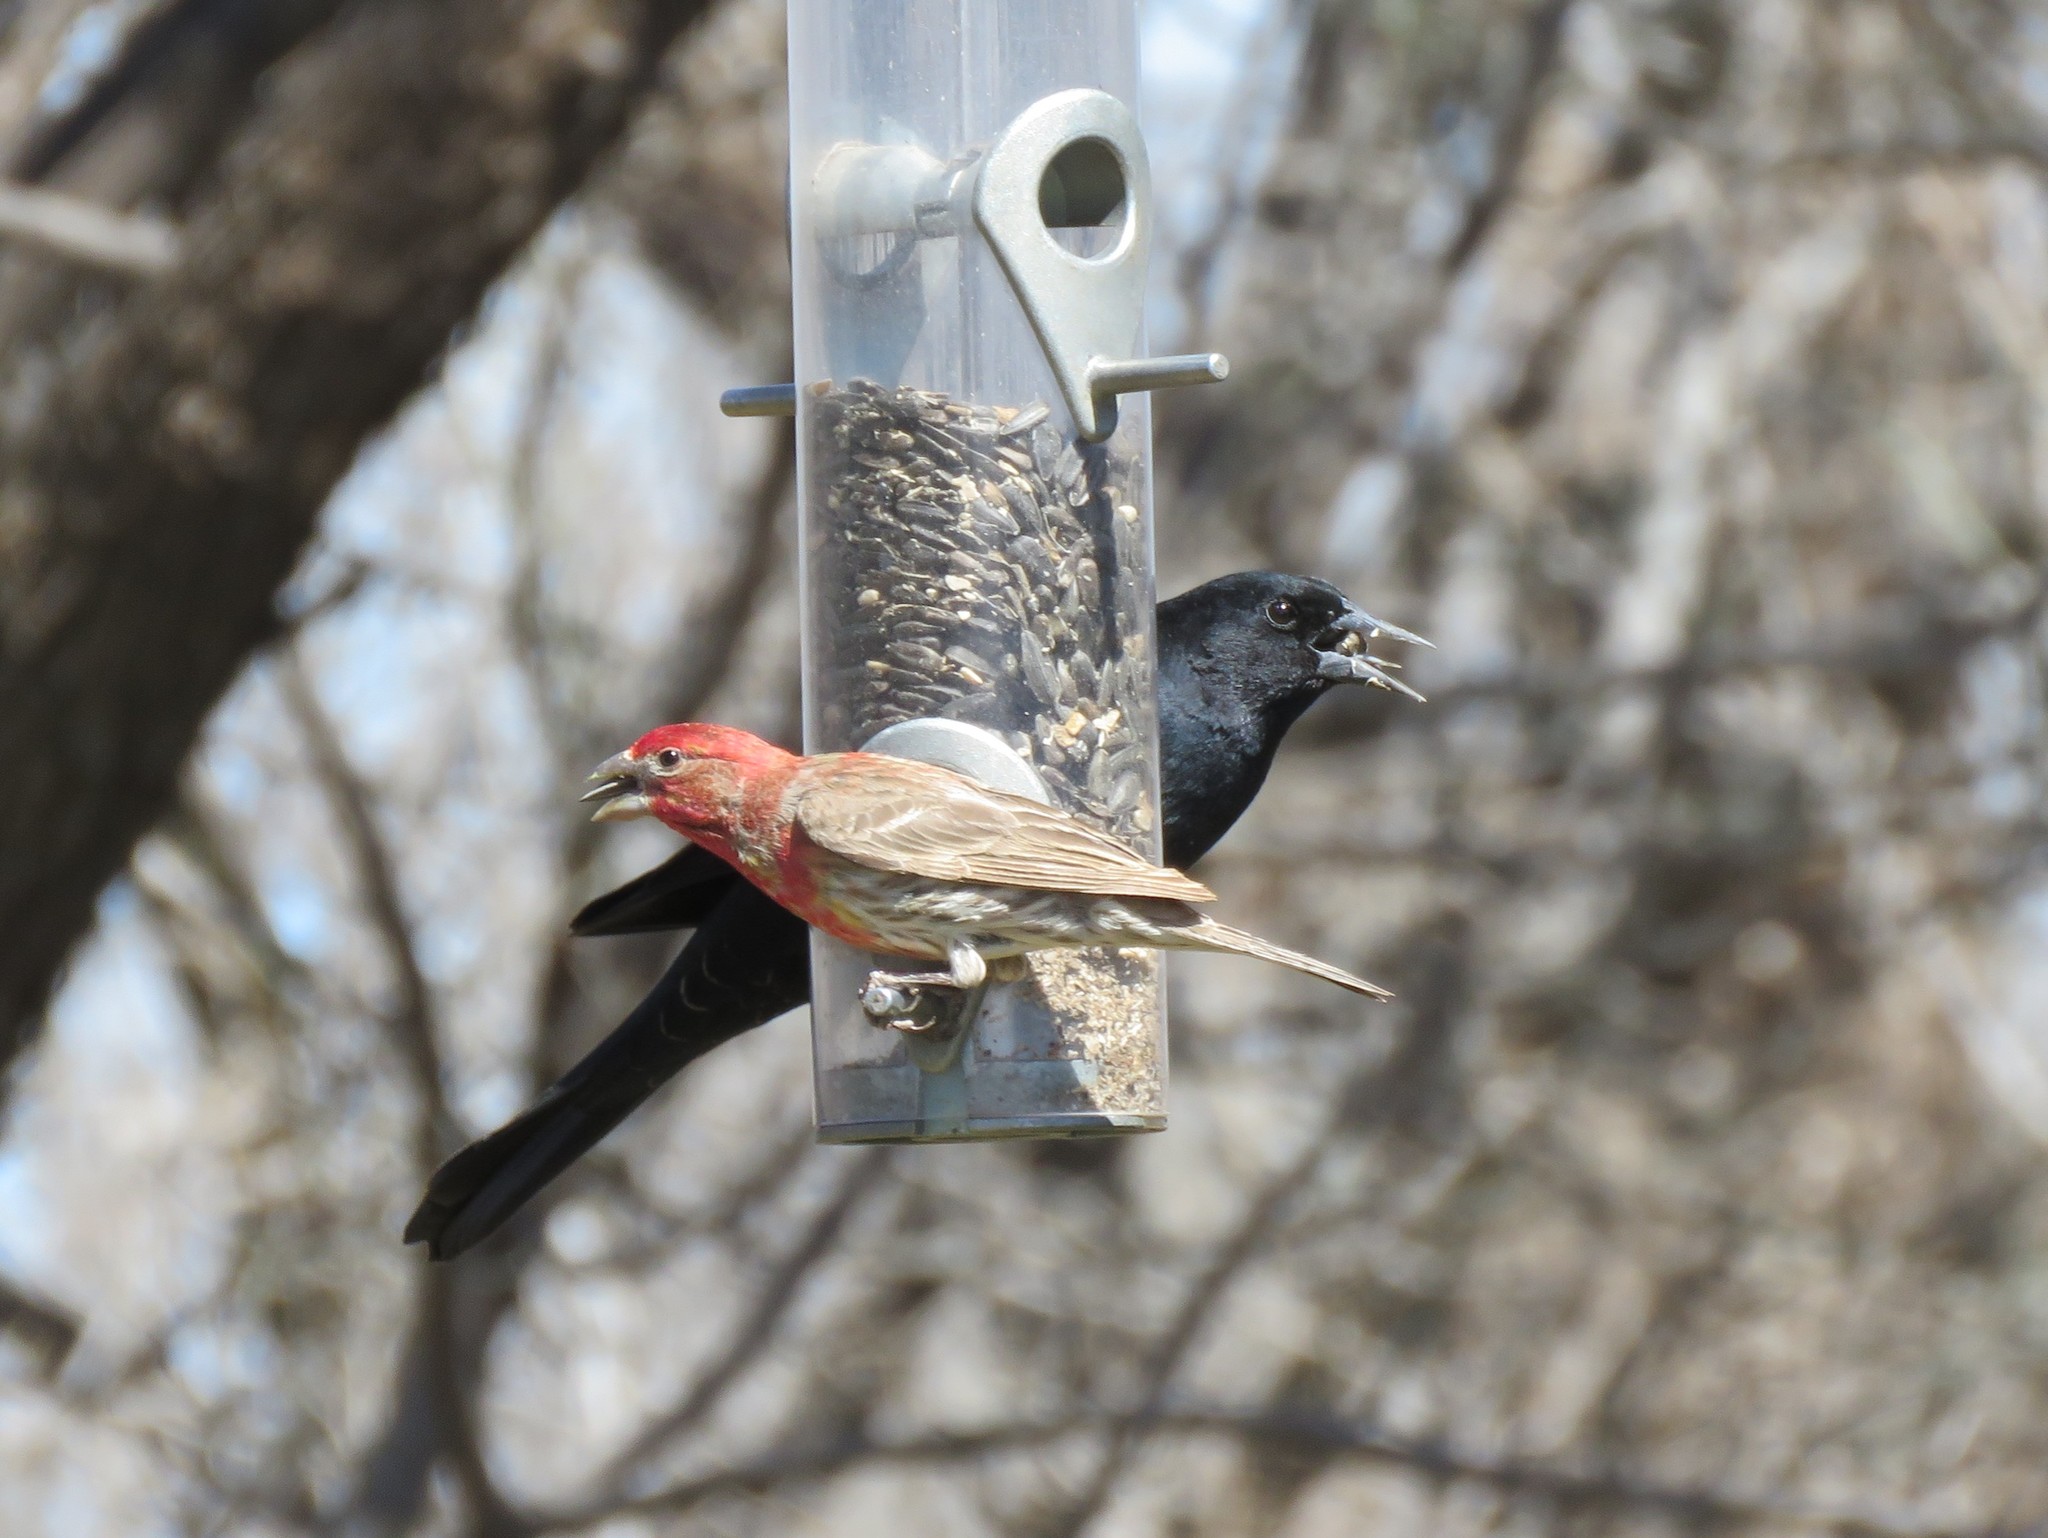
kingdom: Animalia
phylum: Chordata
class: Aves
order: Passeriformes
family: Fringillidae
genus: Haemorhous
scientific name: Haemorhous mexicanus
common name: House finch
